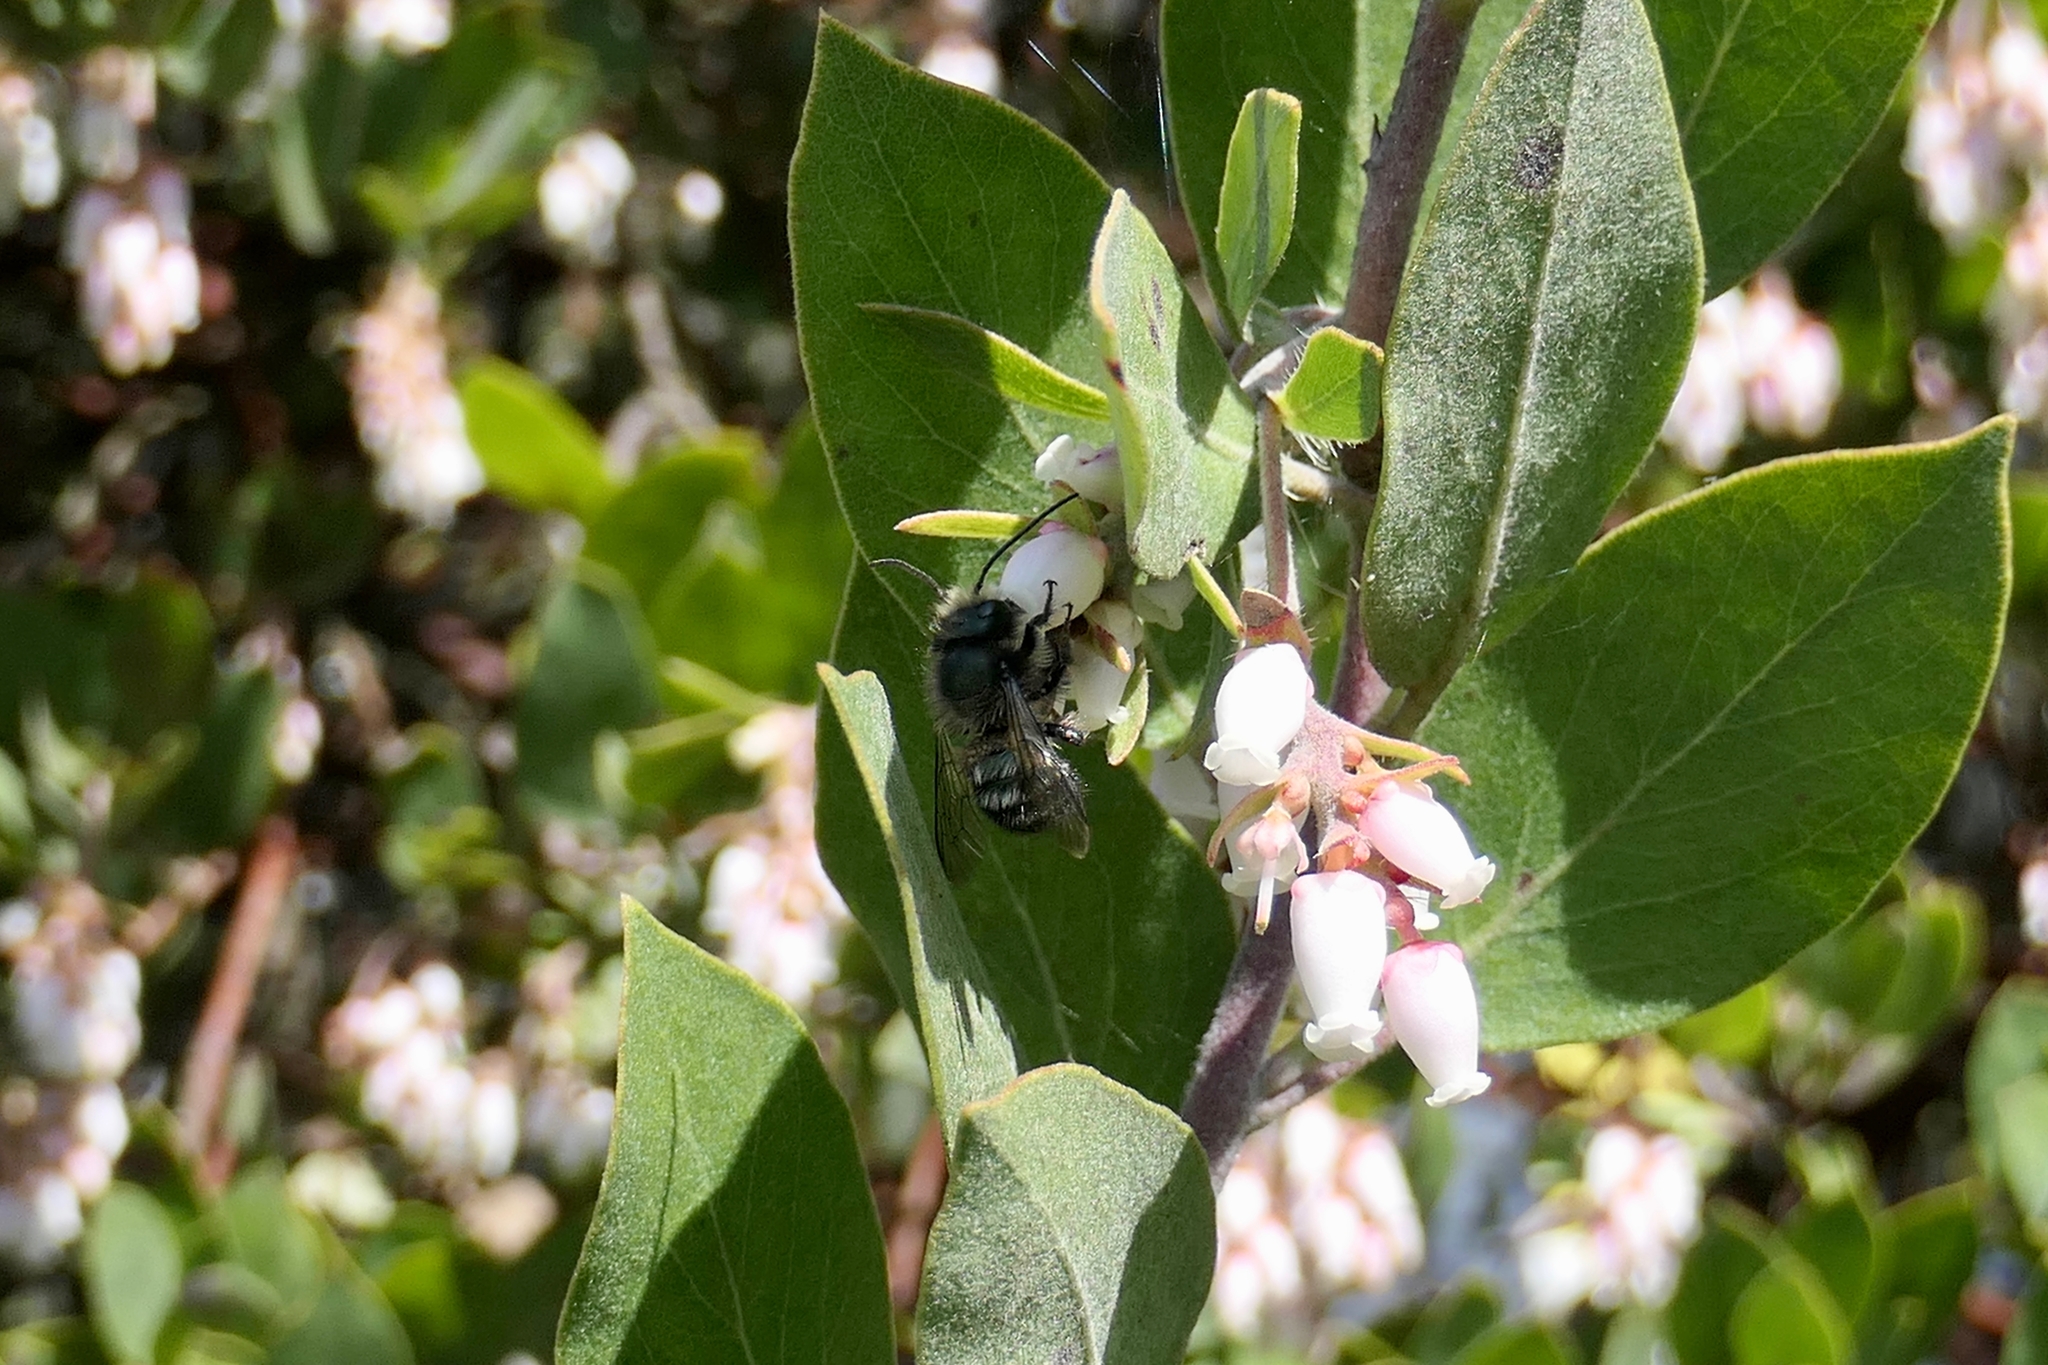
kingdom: Animalia
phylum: Arthropoda
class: Insecta
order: Hymenoptera
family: Megachilidae
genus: Osmia
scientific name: Osmia lignaria
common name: Blue orchard bee
